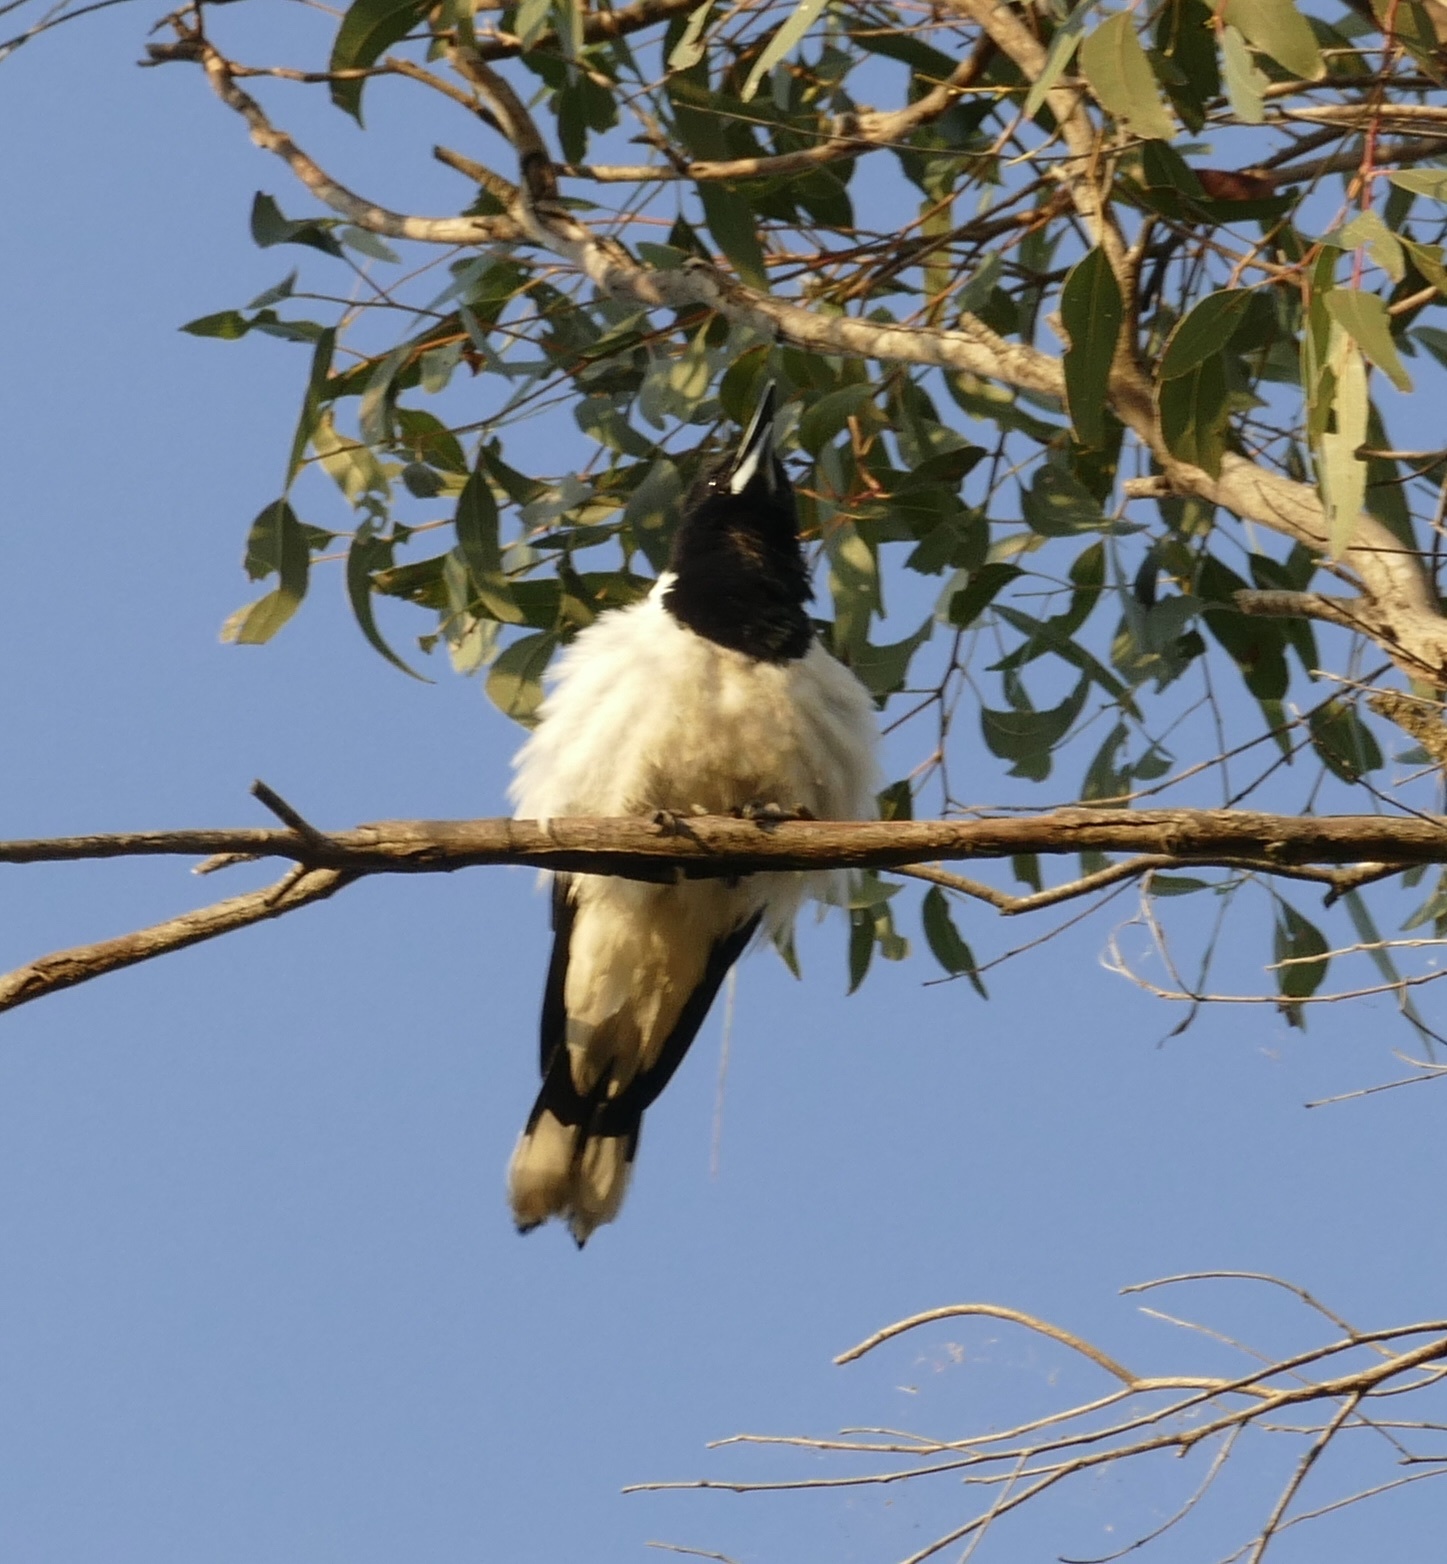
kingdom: Animalia
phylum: Chordata
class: Aves
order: Passeriformes
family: Cracticidae
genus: Cracticus
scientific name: Cracticus nigrogularis
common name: Pied butcherbird
